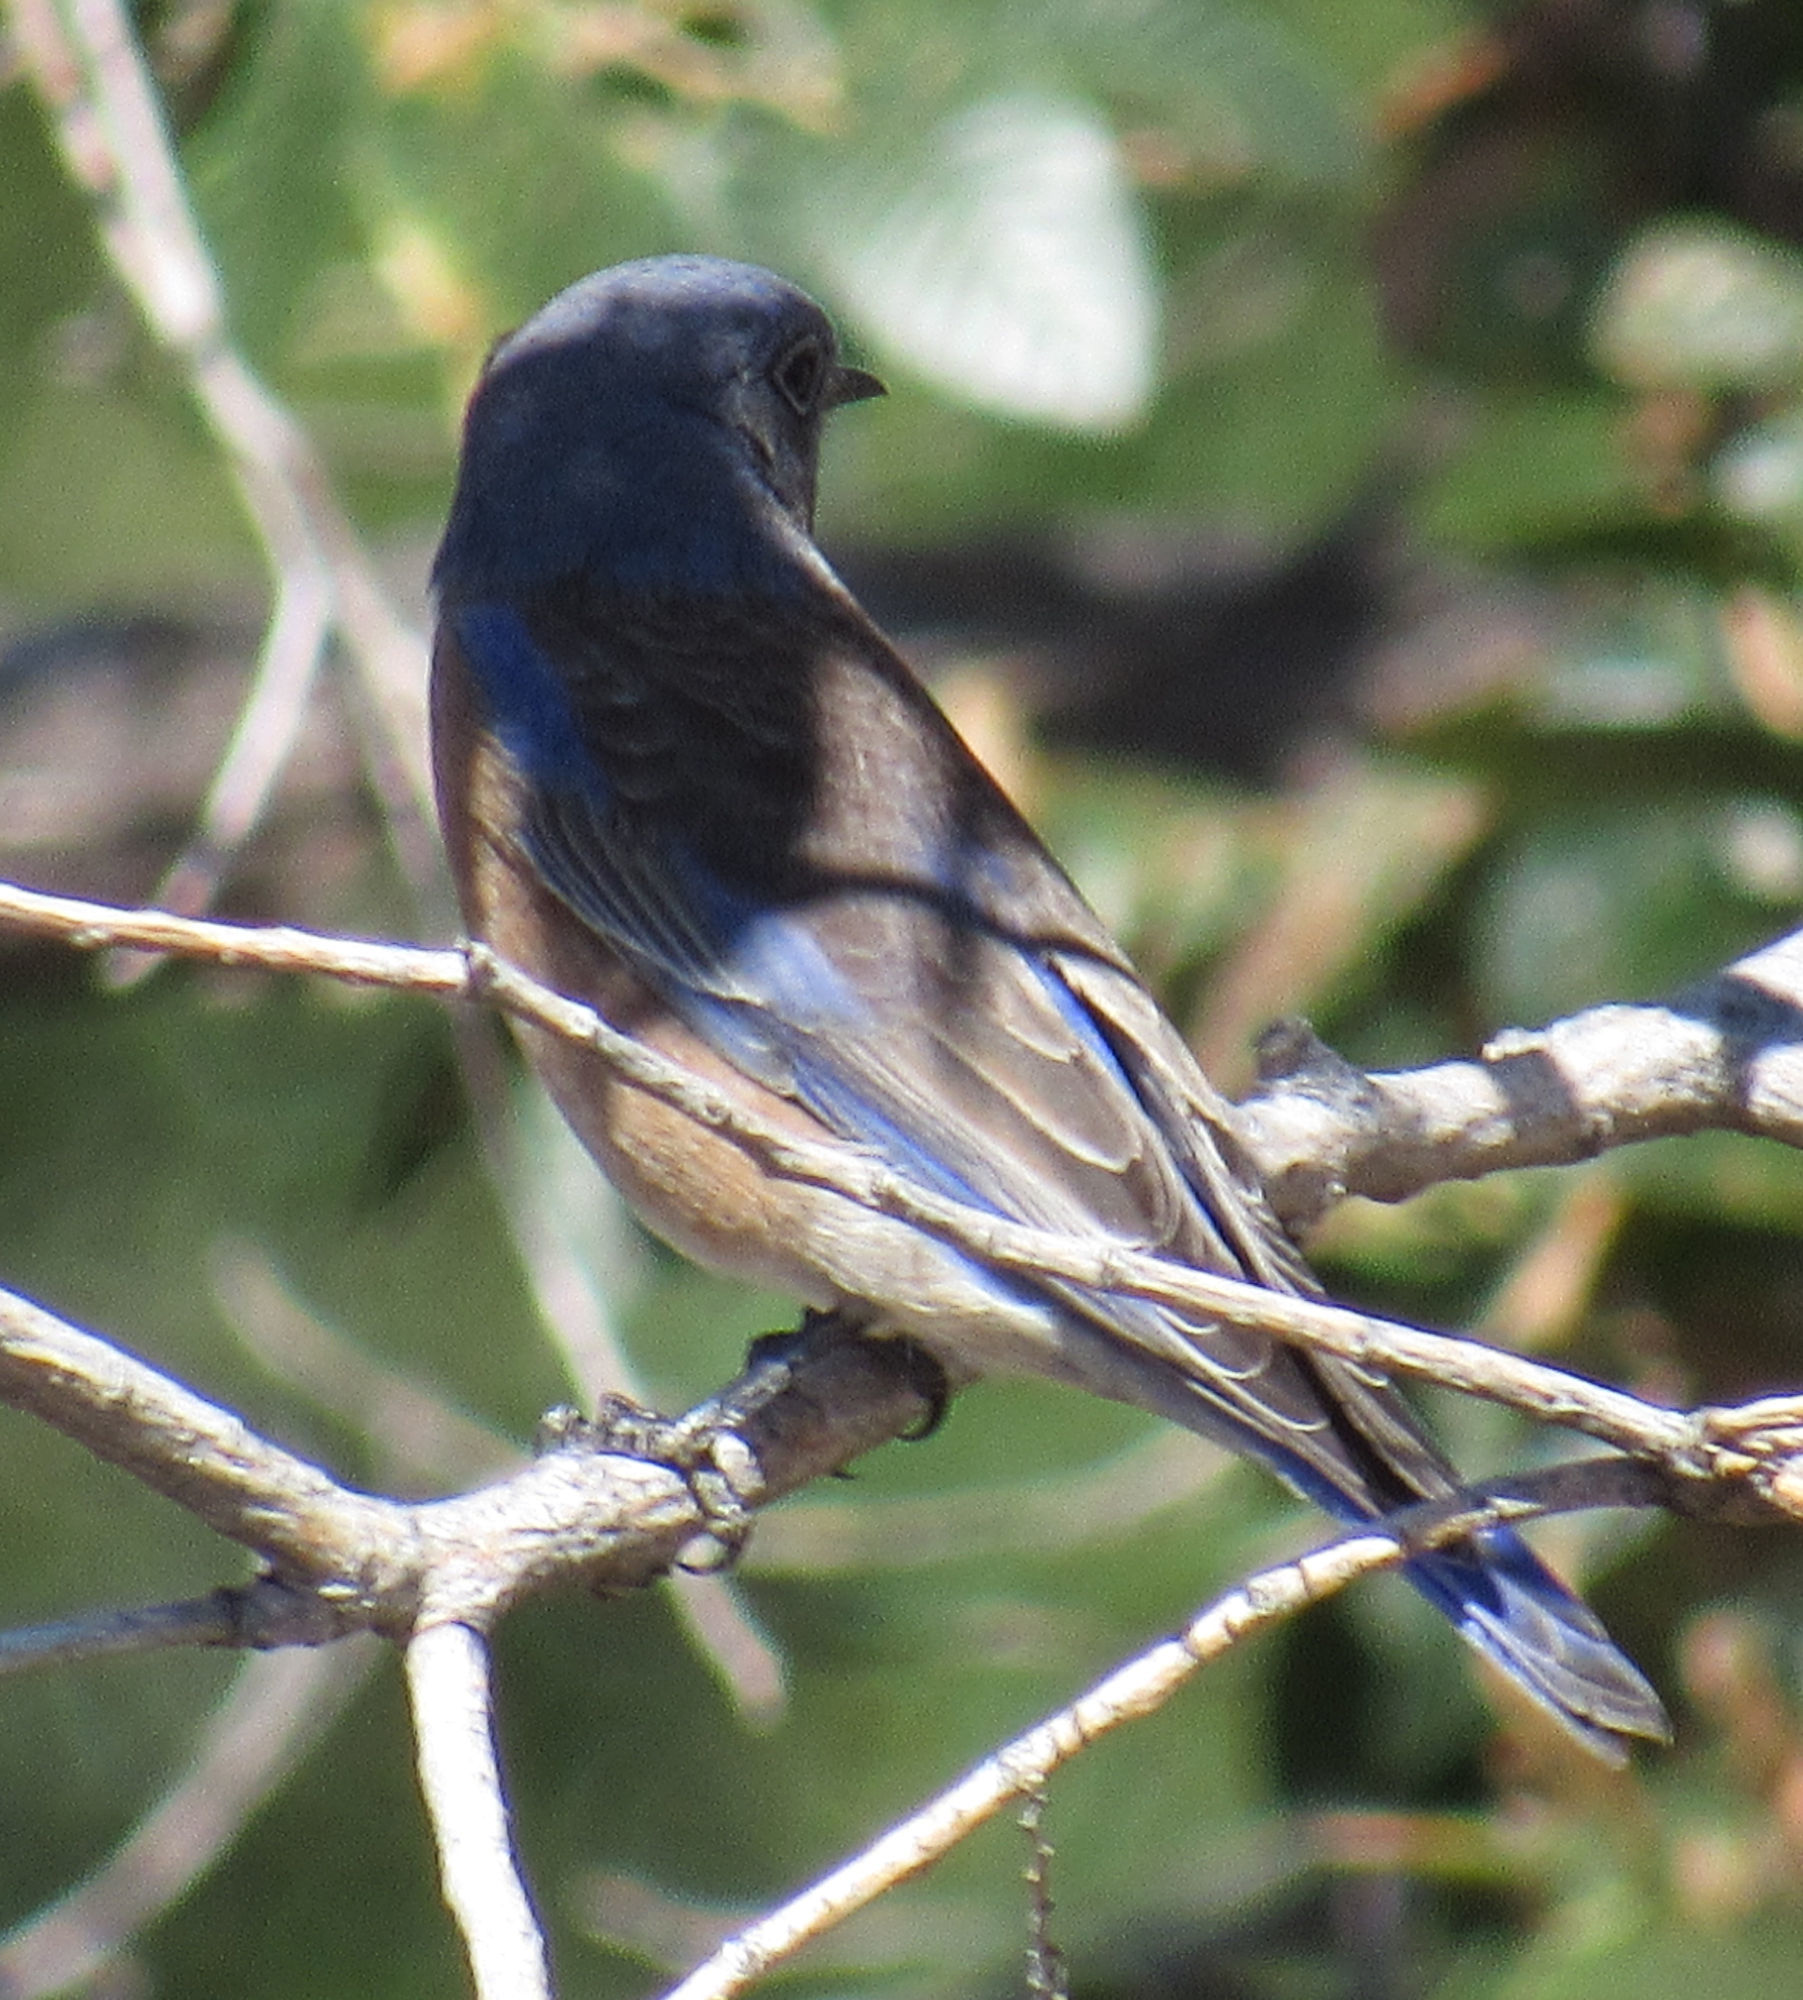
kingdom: Animalia
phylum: Chordata
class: Aves
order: Passeriformes
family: Turdidae
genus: Sialia
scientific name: Sialia mexicana
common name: Western bluebird
